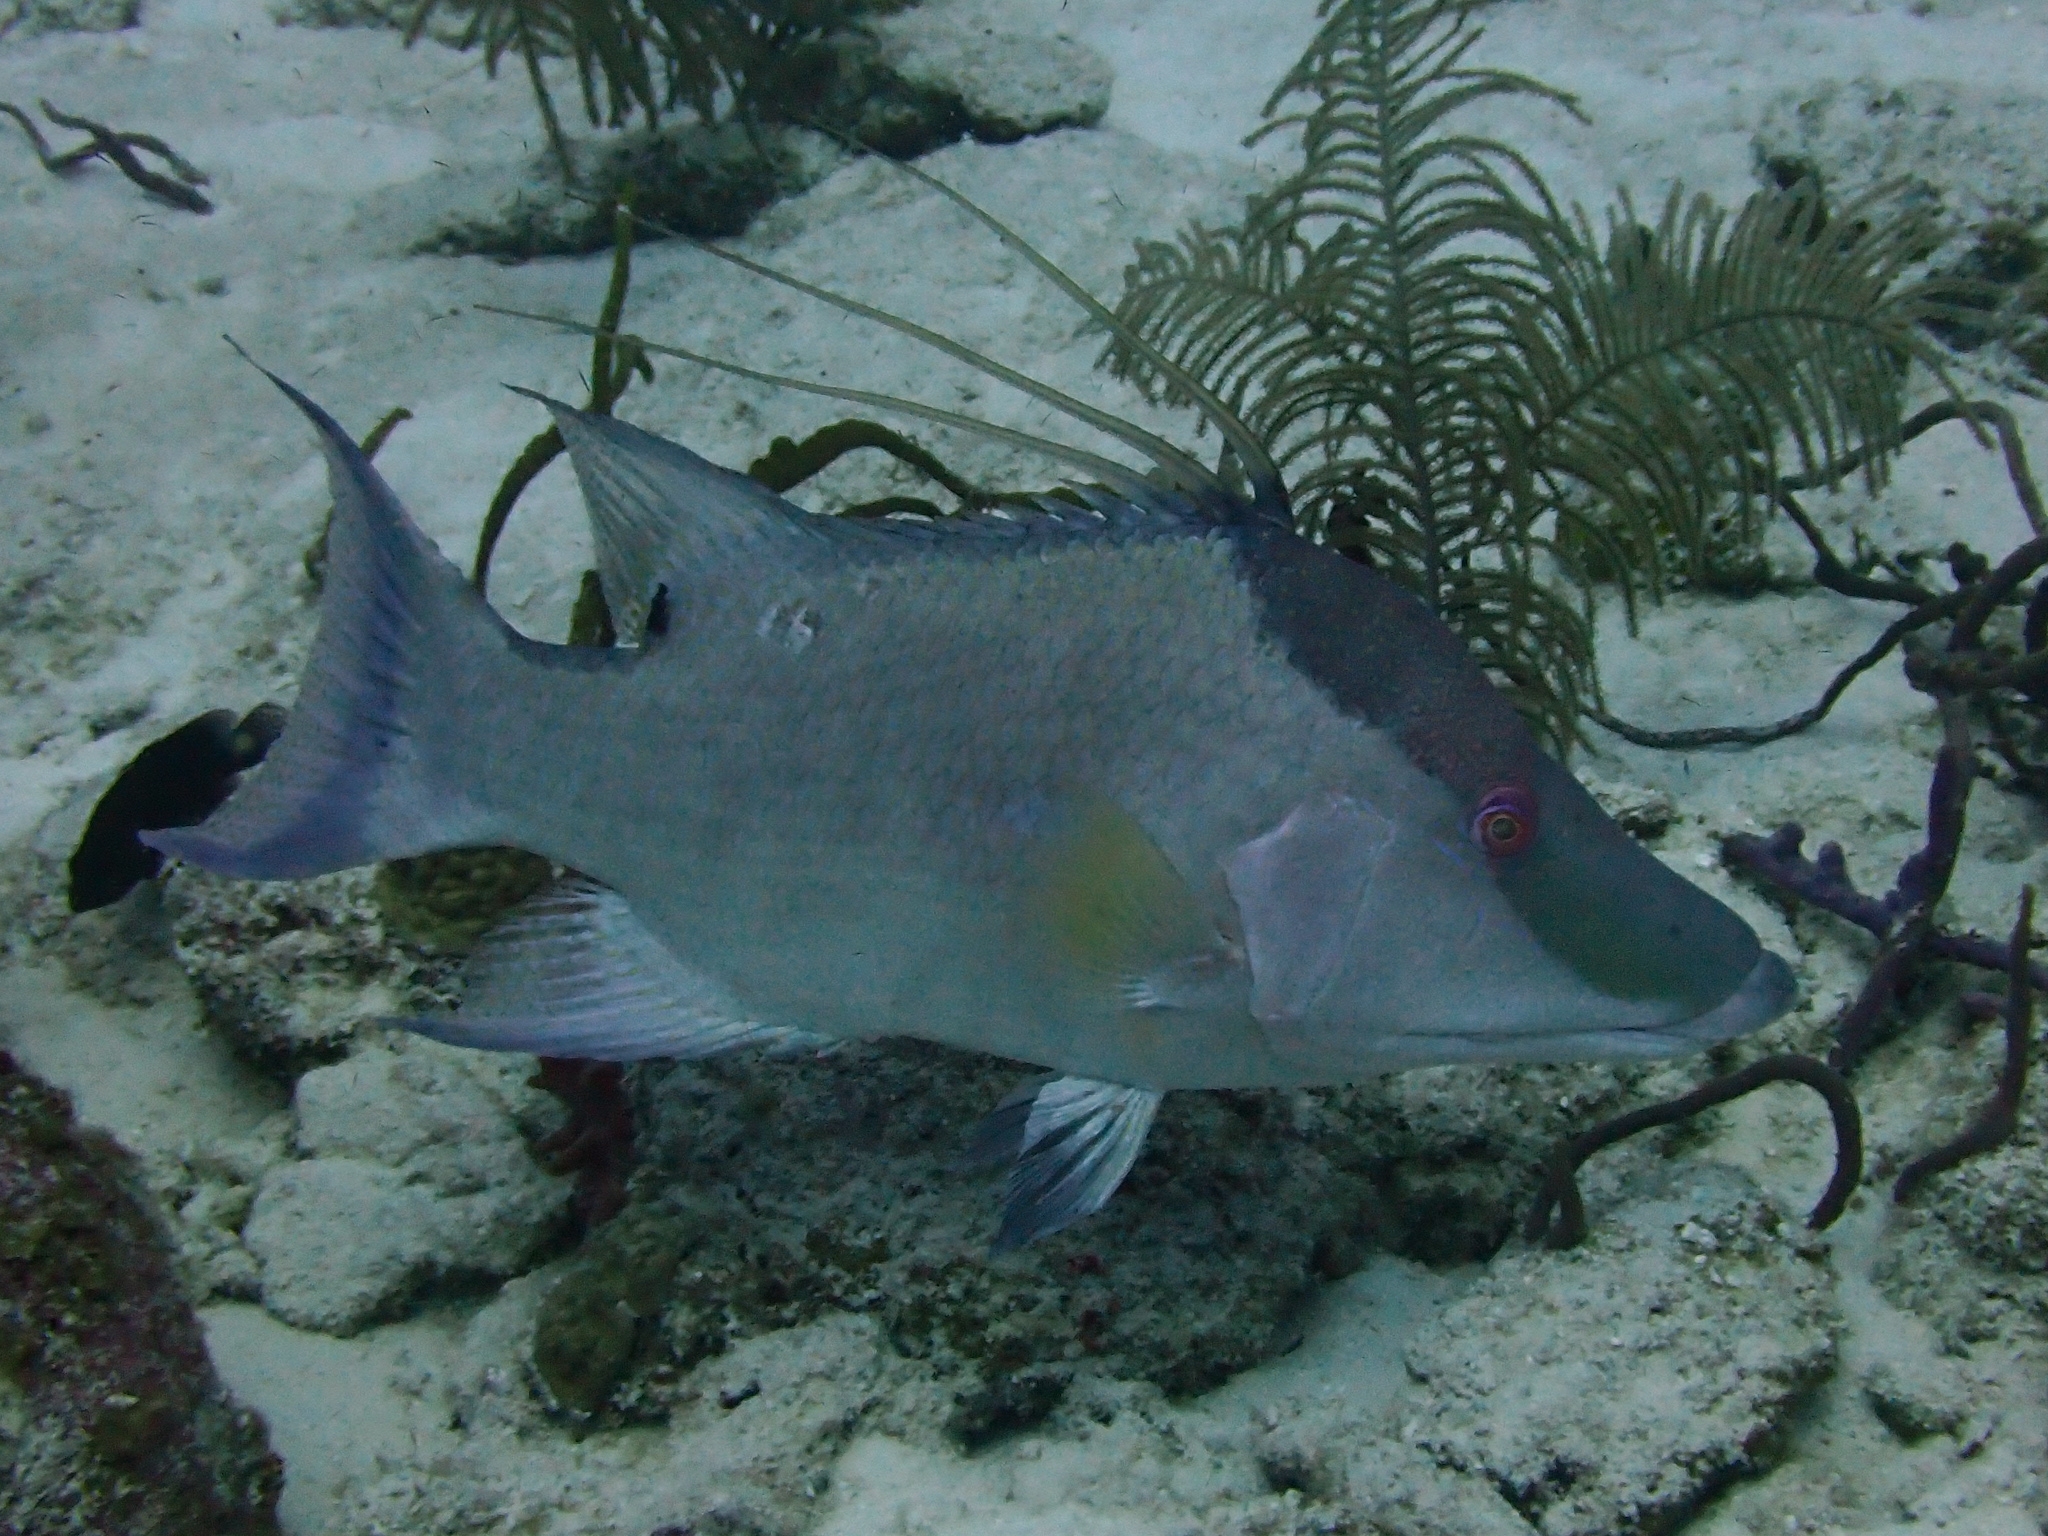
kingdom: Animalia
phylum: Chordata
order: Perciformes
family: Labridae
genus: Lachnolaimus
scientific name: Lachnolaimus maximus
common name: Hogfish
